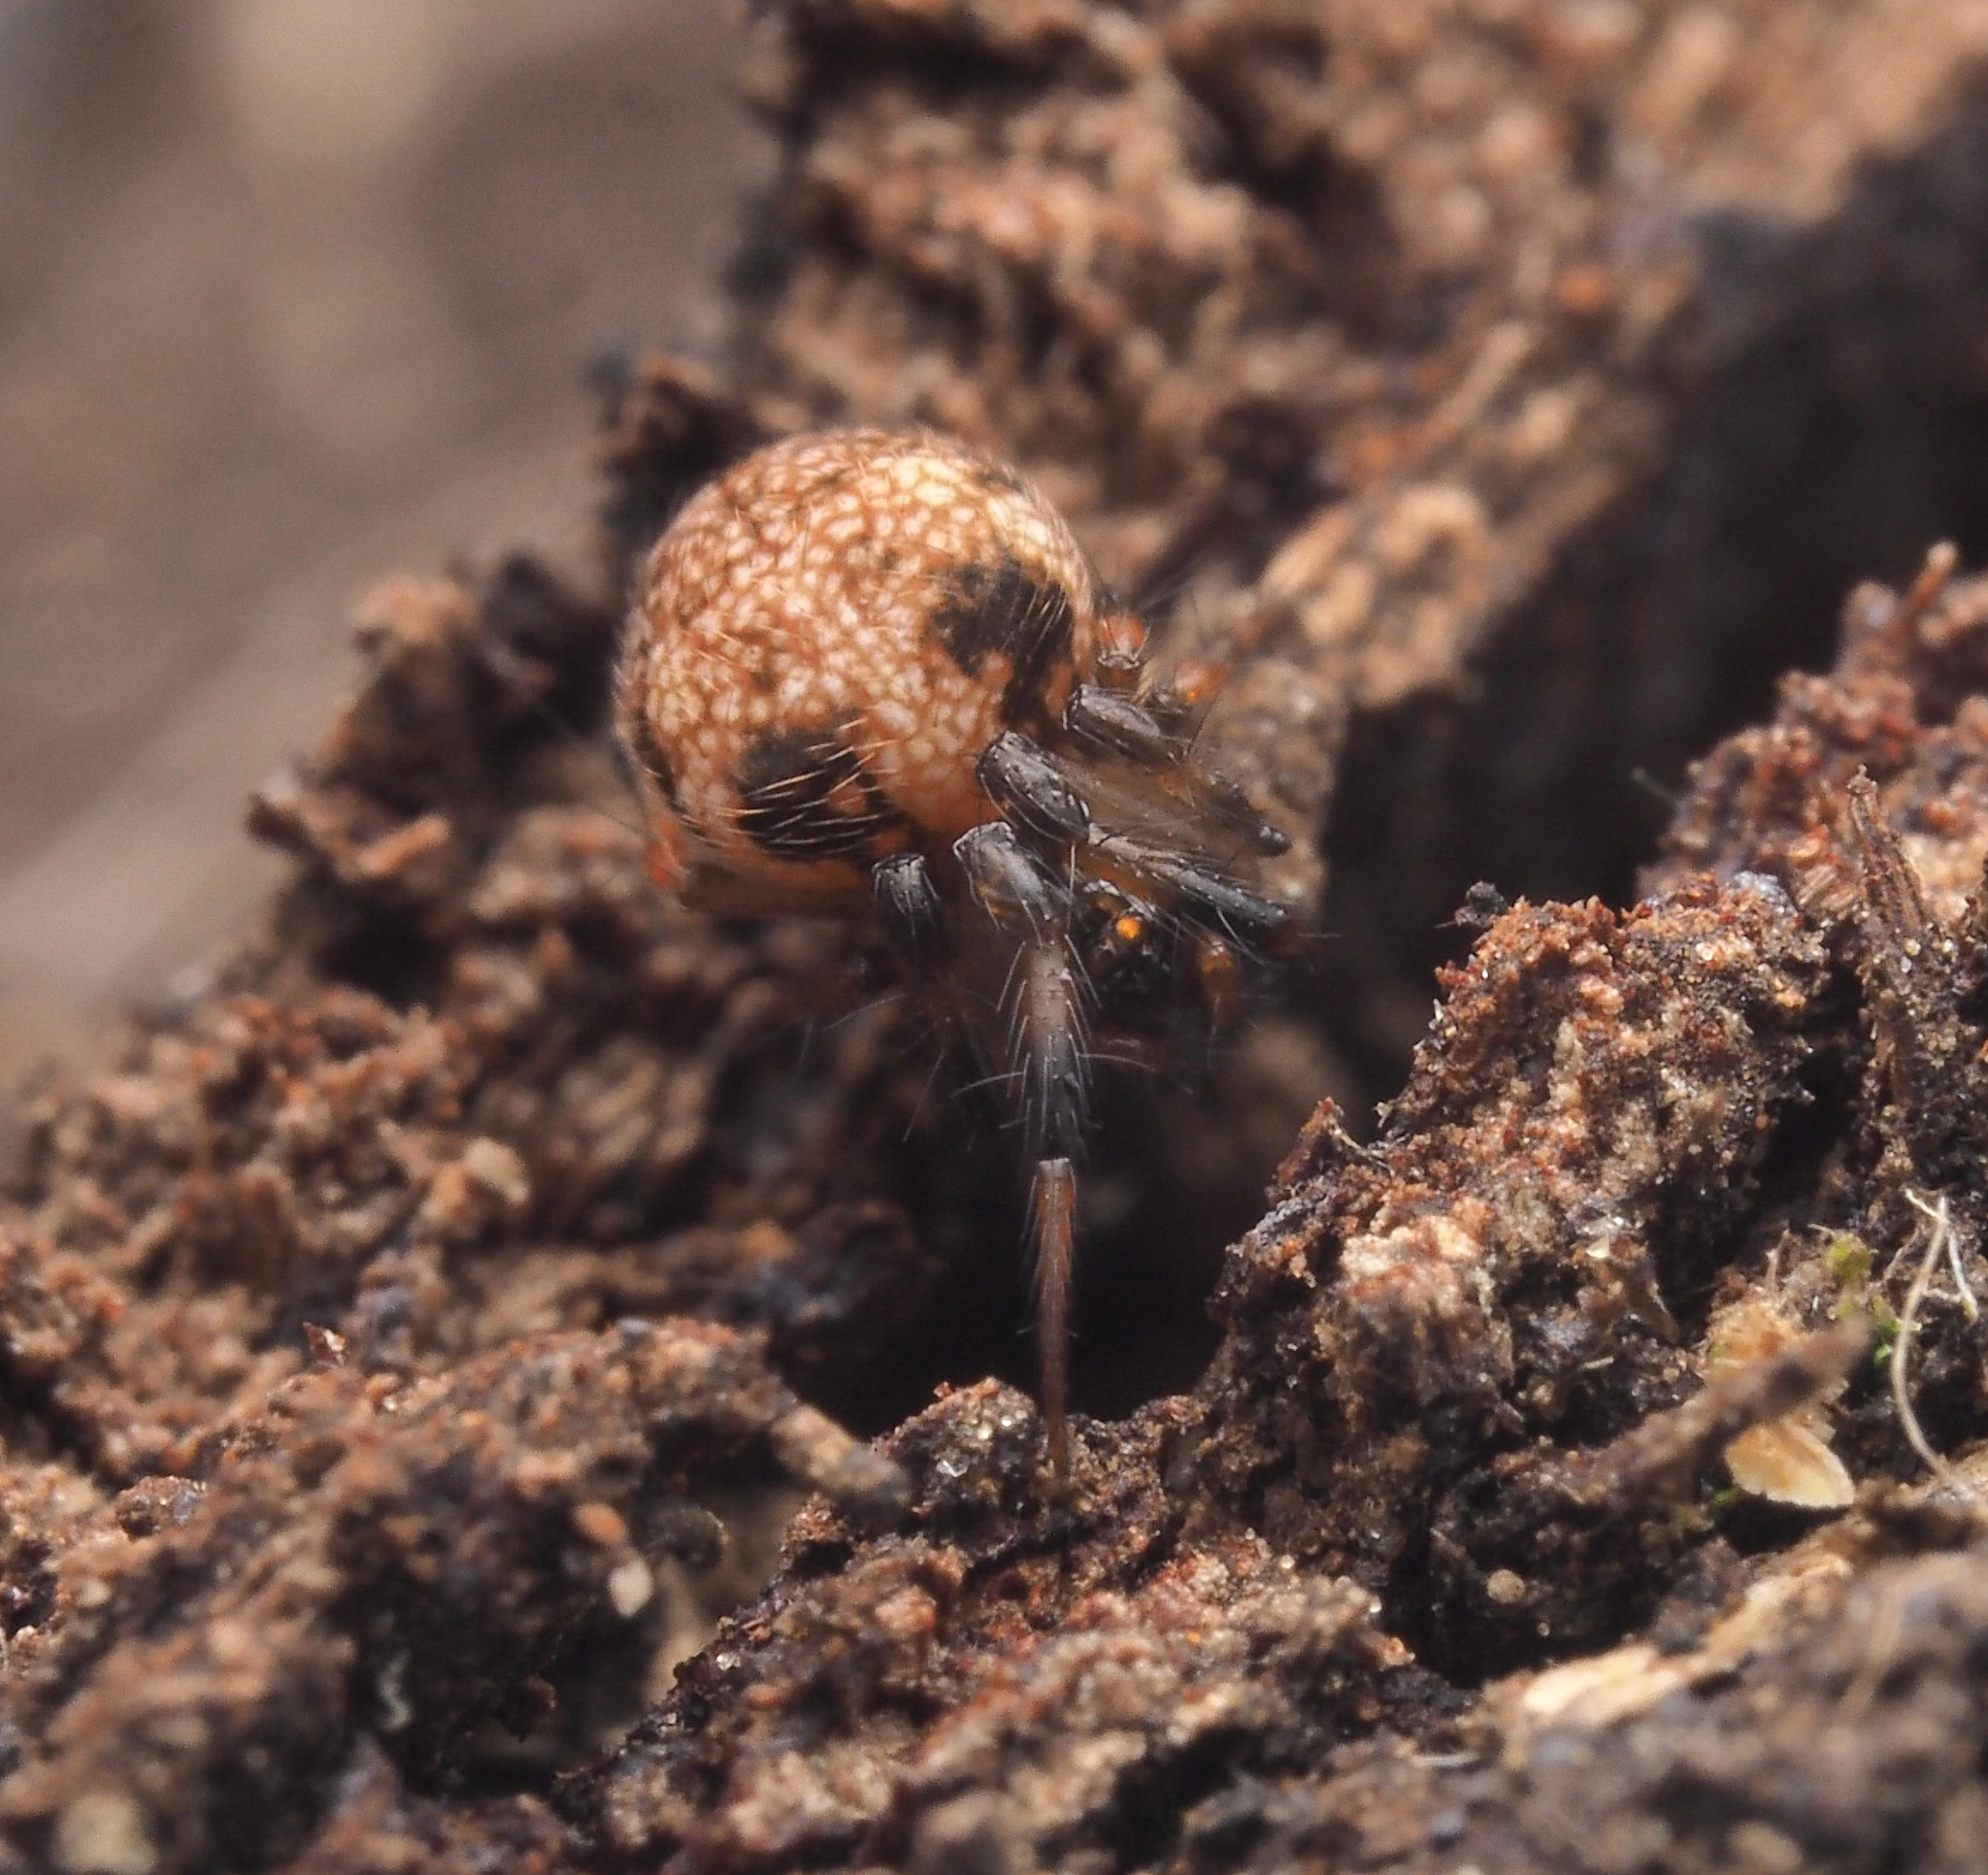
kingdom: Animalia
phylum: Arthropoda
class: Arachnida
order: Araneae
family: Theridiosomatidae
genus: Baalzebub
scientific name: Baalzebub
